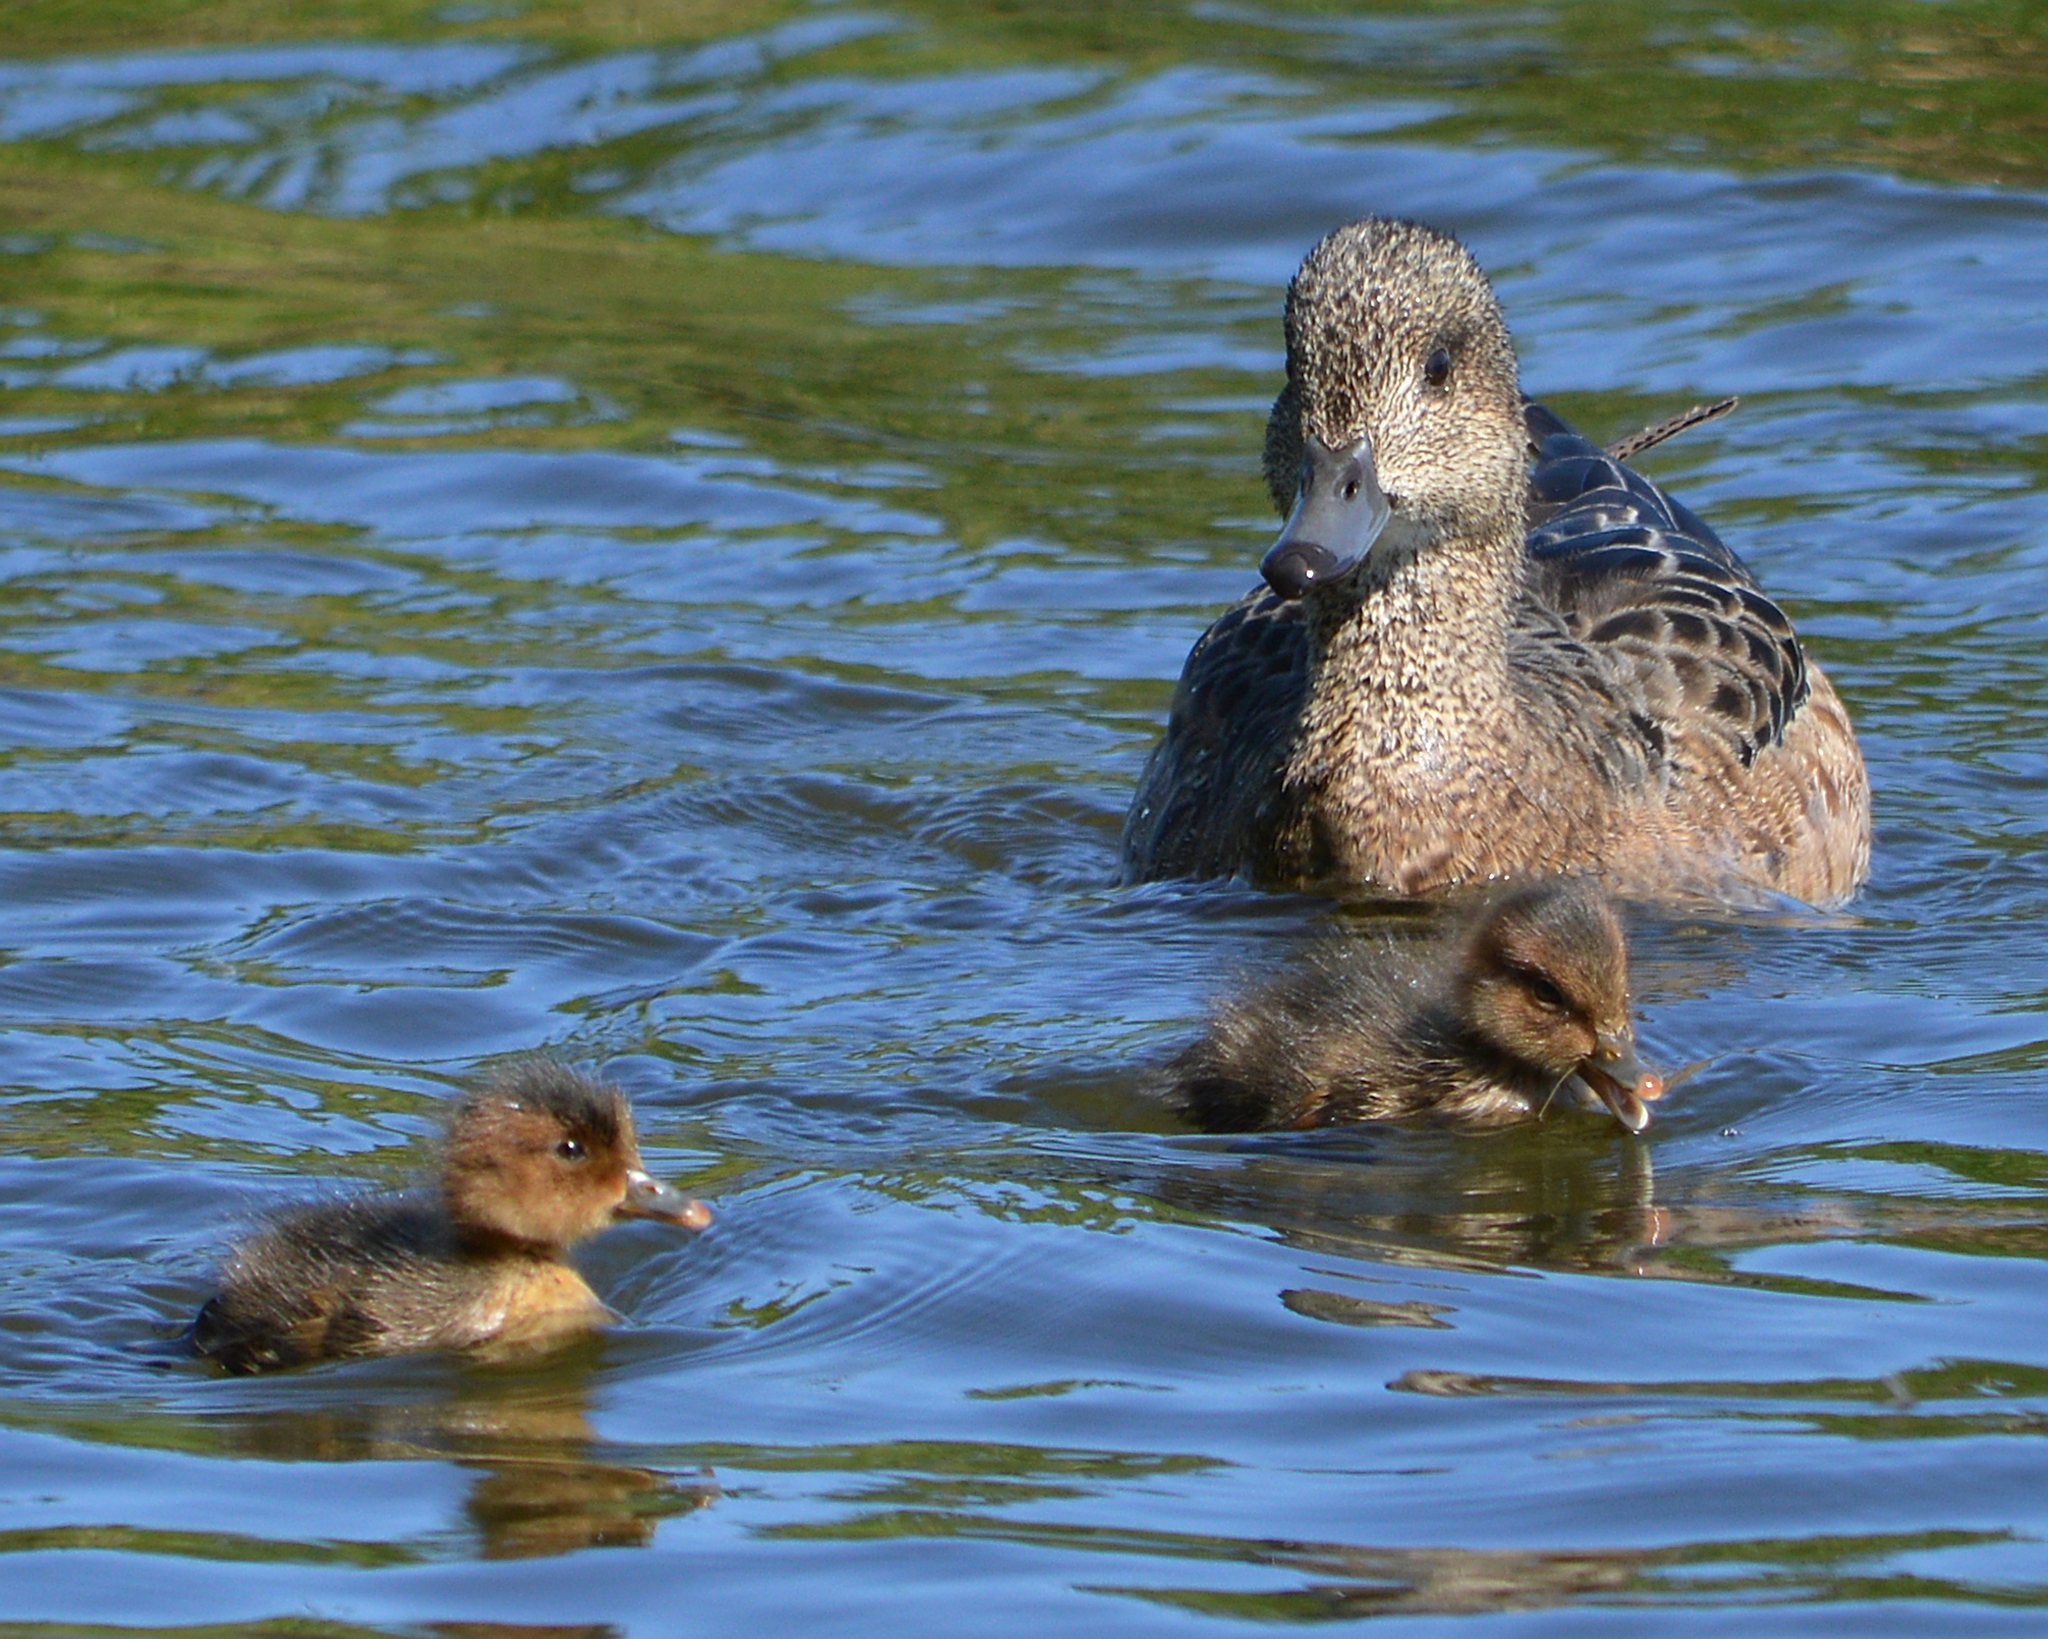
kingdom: Animalia
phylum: Chordata
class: Aves
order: Anseriformes
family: Anatidae
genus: Mareca
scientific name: Mareca penelope
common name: Eurasian wigeon
